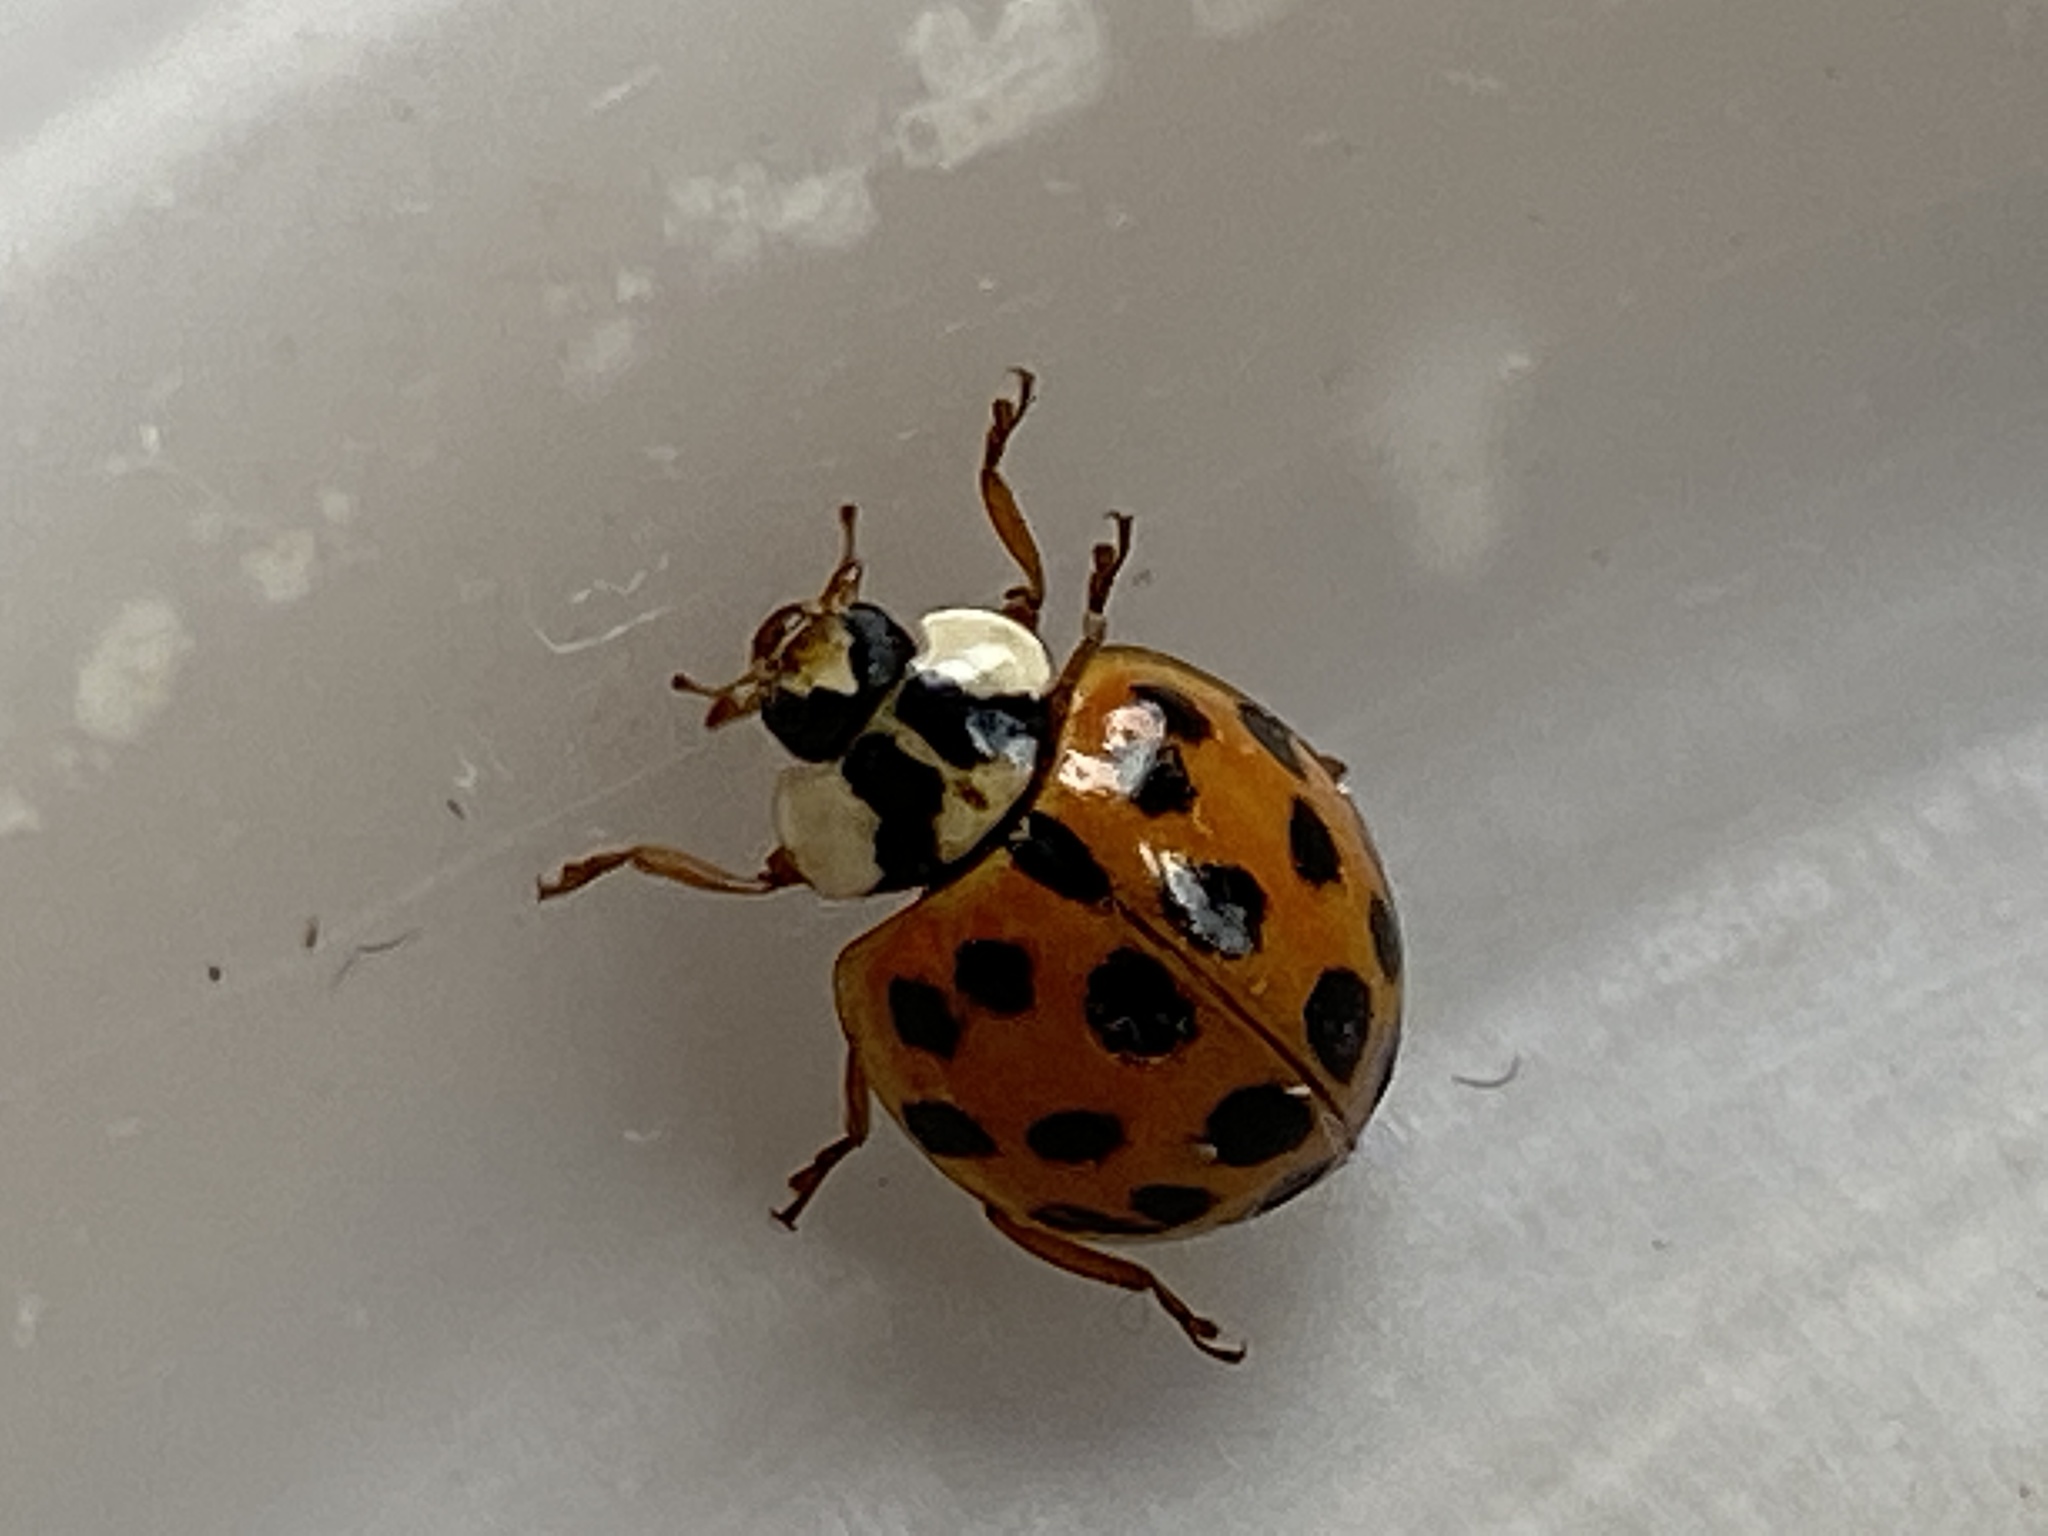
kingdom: Animalia
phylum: Arthropoda
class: Insecta
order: Coleoptera
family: Coccinellidae
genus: Harmonia
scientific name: Harmonia axyridis
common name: Harlequin ladybird
